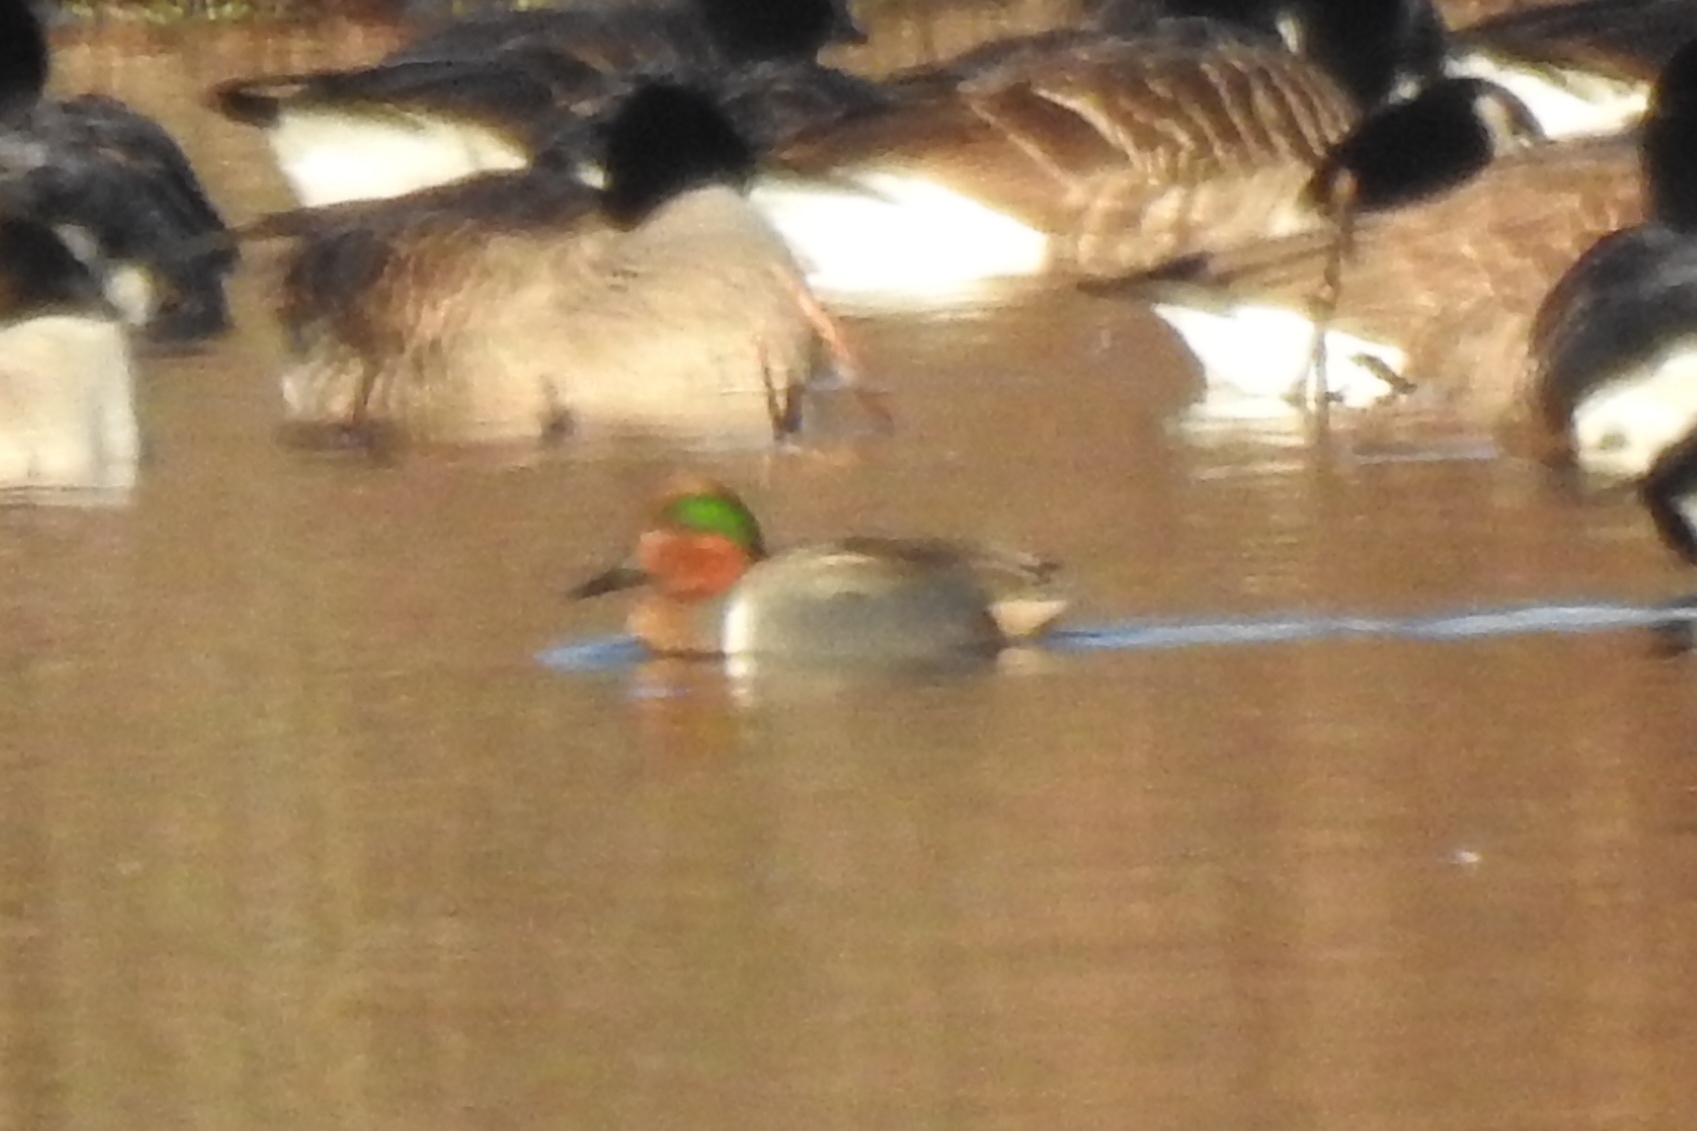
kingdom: Animalia
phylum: Chordata
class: Aves
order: Anseriformes
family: Anatidae
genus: Anas
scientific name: Anas crecca
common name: Eurasian teal
